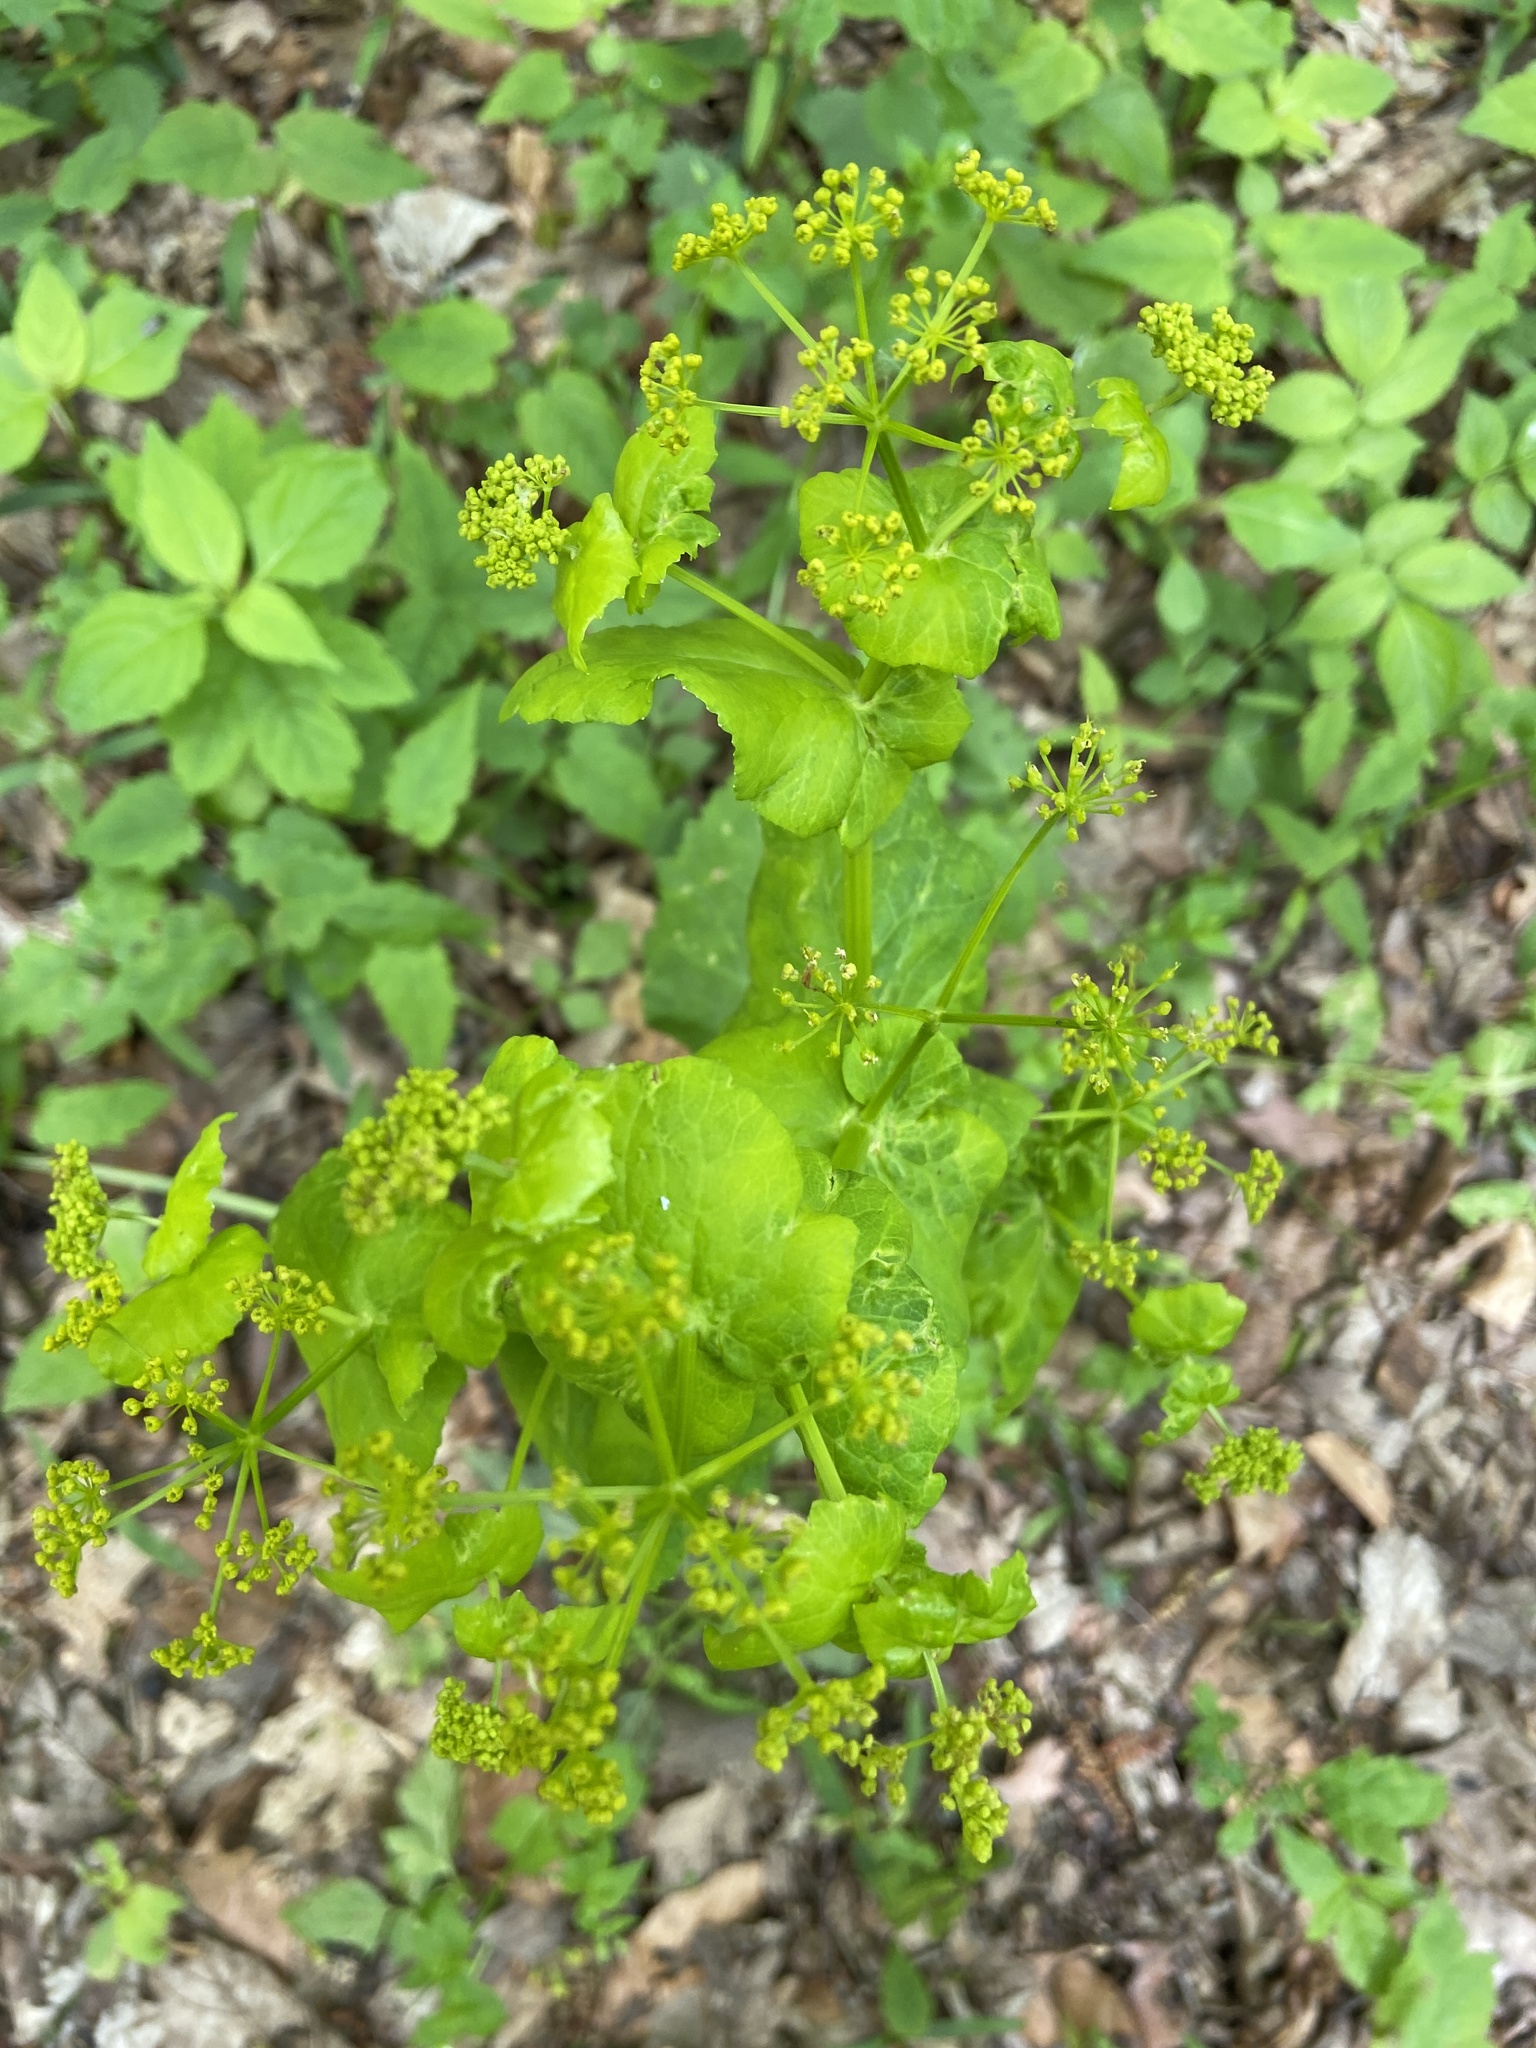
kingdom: Plantae
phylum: Tracheophyta
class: Magnoliopsida
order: Apiales
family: Apiaceae
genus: Smyrnium
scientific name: Smyrnium perfoliatum
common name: Perfoliate alexanders
